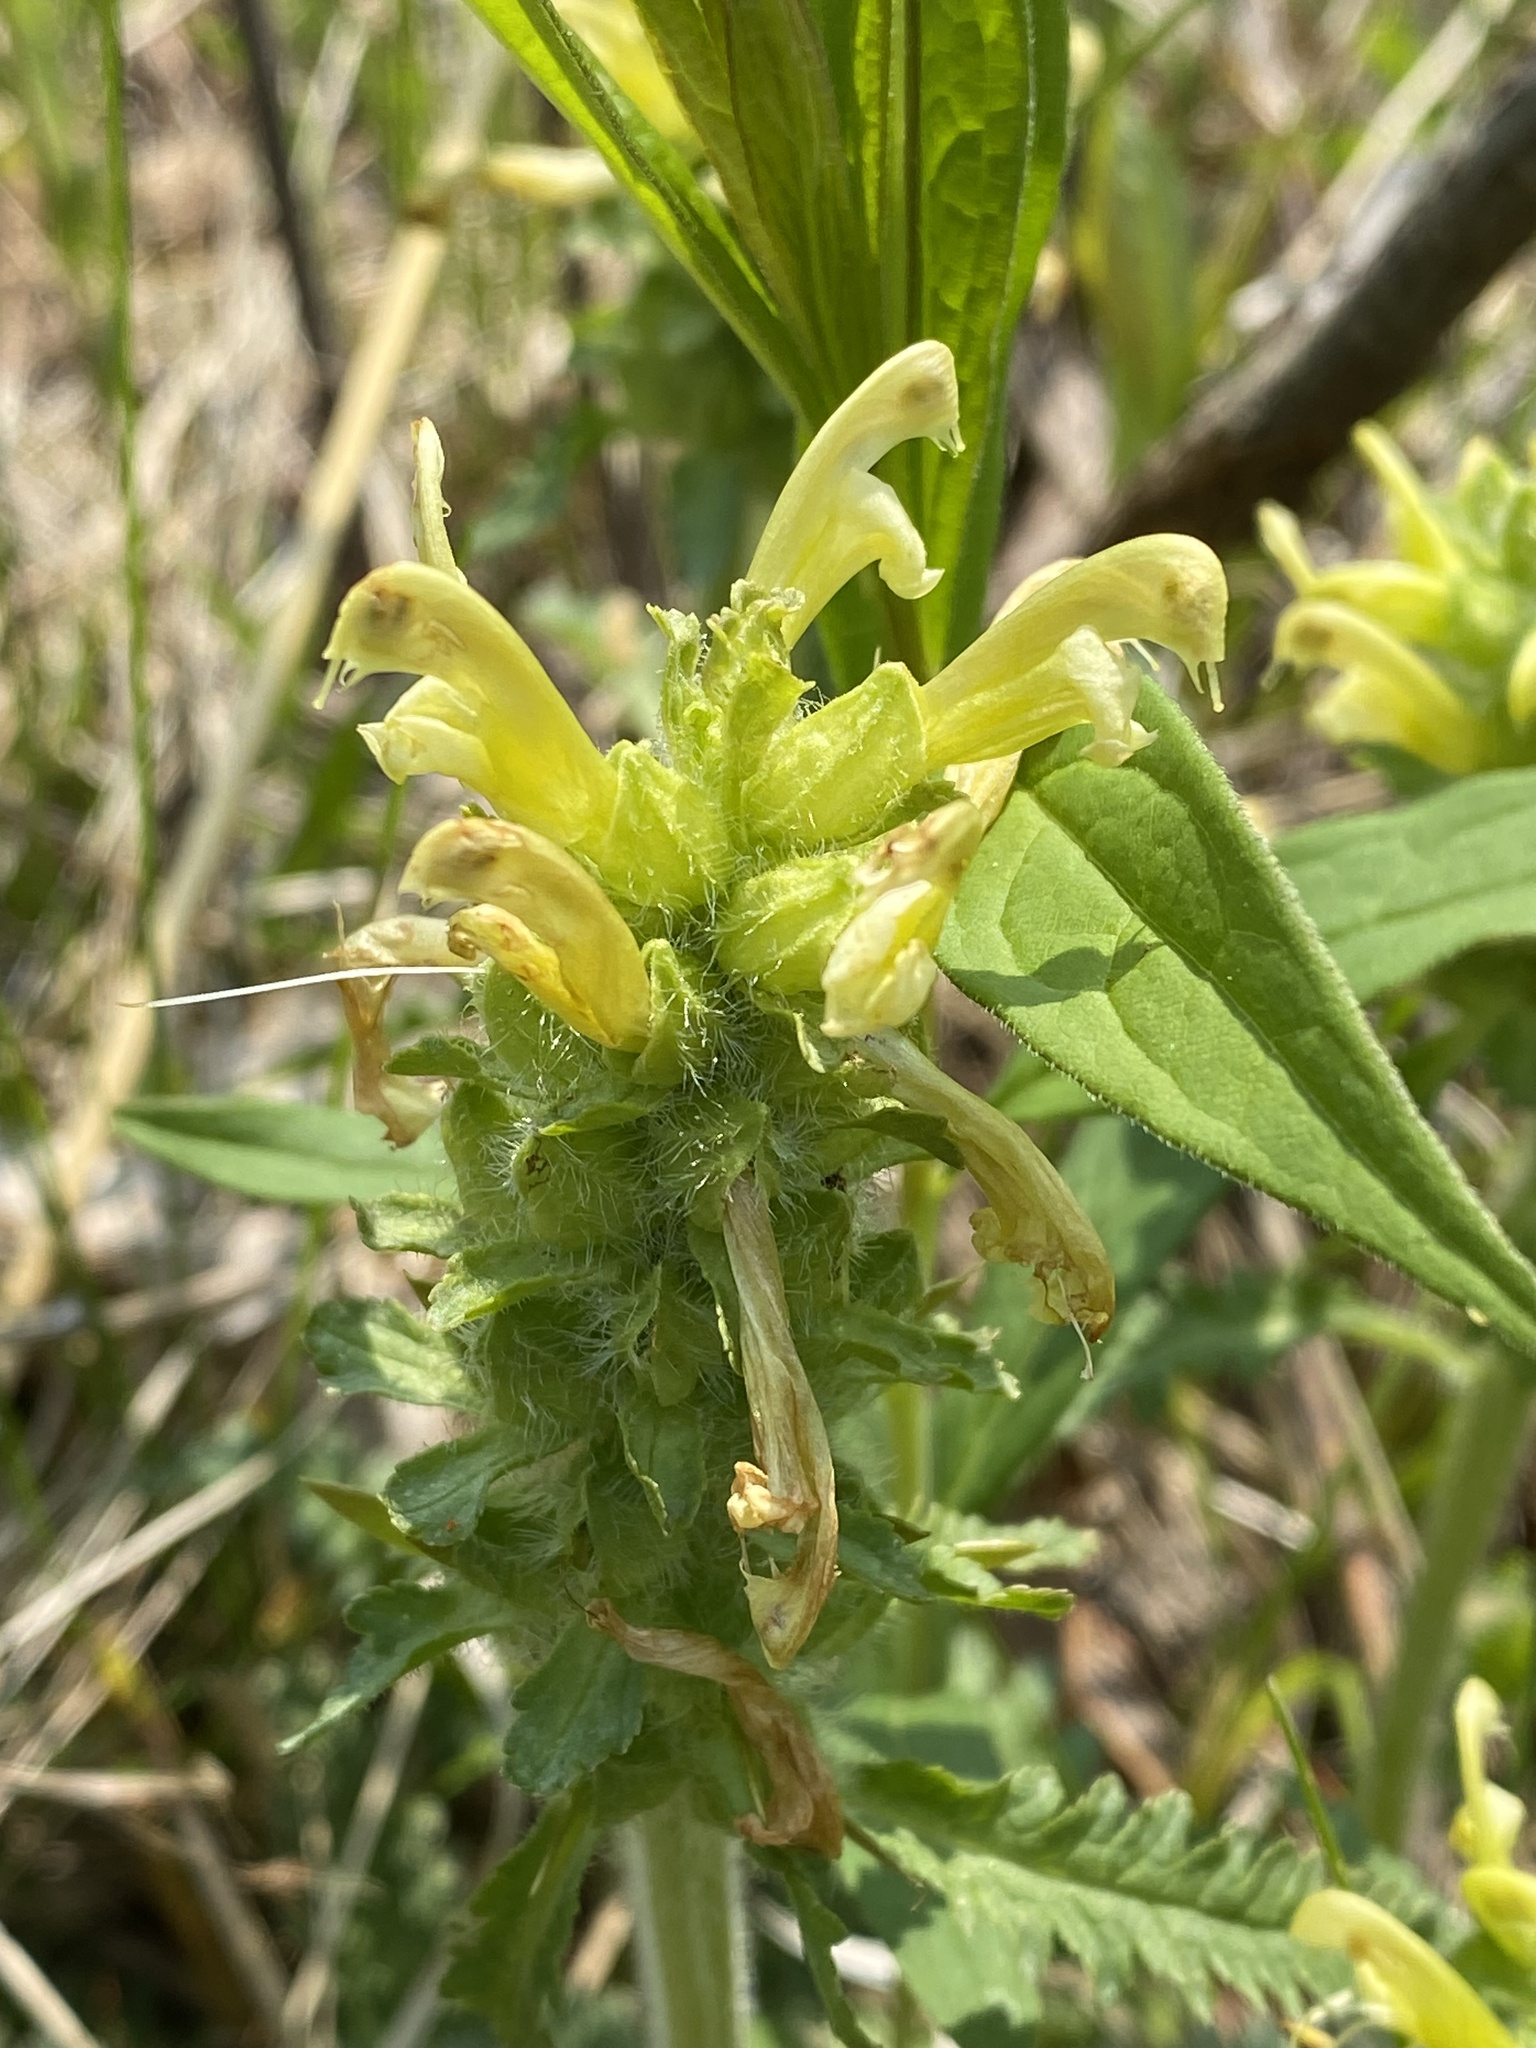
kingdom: Plantae
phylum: Tracheophyta
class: Magnoliopsida
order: Lamiales
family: Orobanchaceae
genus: Pedicularis
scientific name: Pedicularis canadensis
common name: Early lousewort
